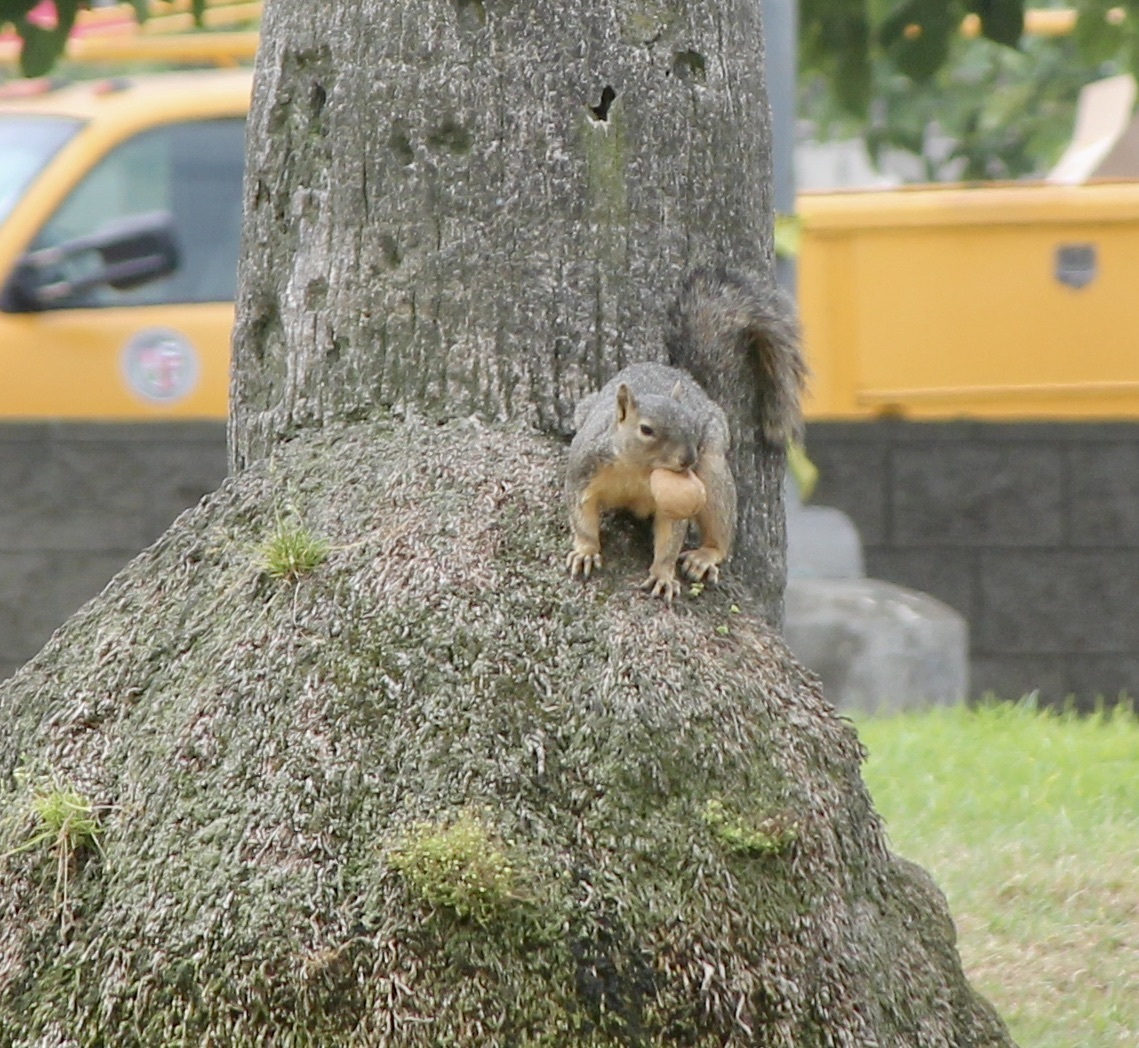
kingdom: Animalia
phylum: Chordata
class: Mammalia
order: Rodentia
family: Sciuridae
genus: Sciurus
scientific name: Sciurus niger
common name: Fox squirrel
